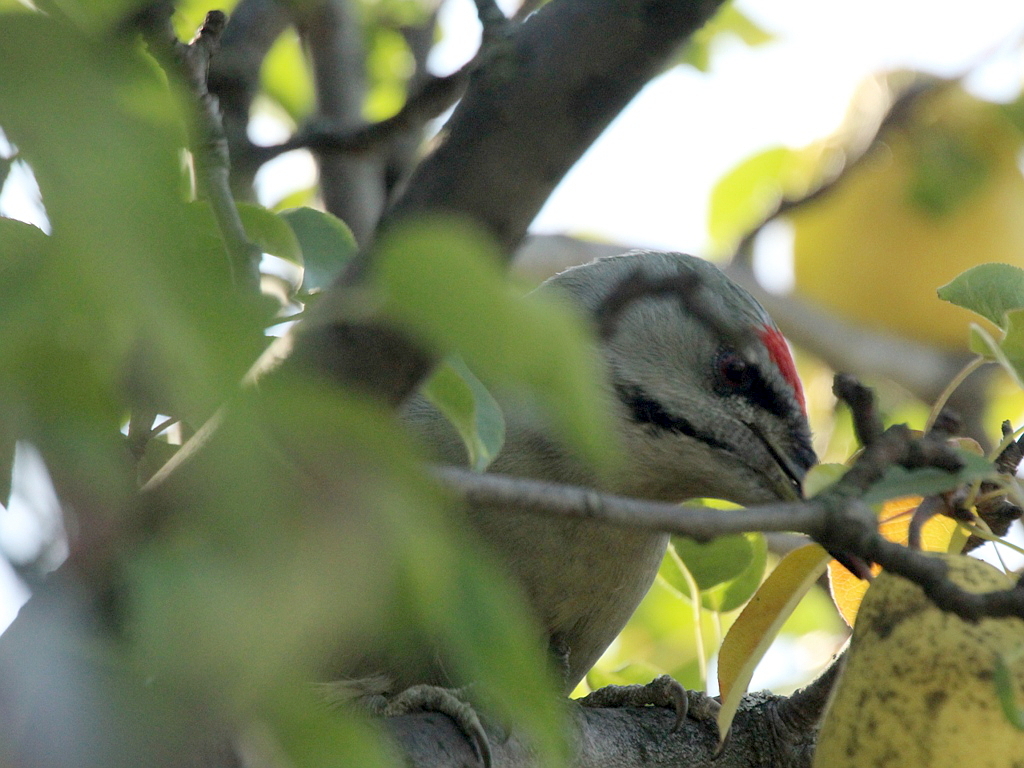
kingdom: Animalia
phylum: Chordata
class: Aves
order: Piciformes
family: Picidae
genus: Picus
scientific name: Picus canus
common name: Grey-headed woodpecker
